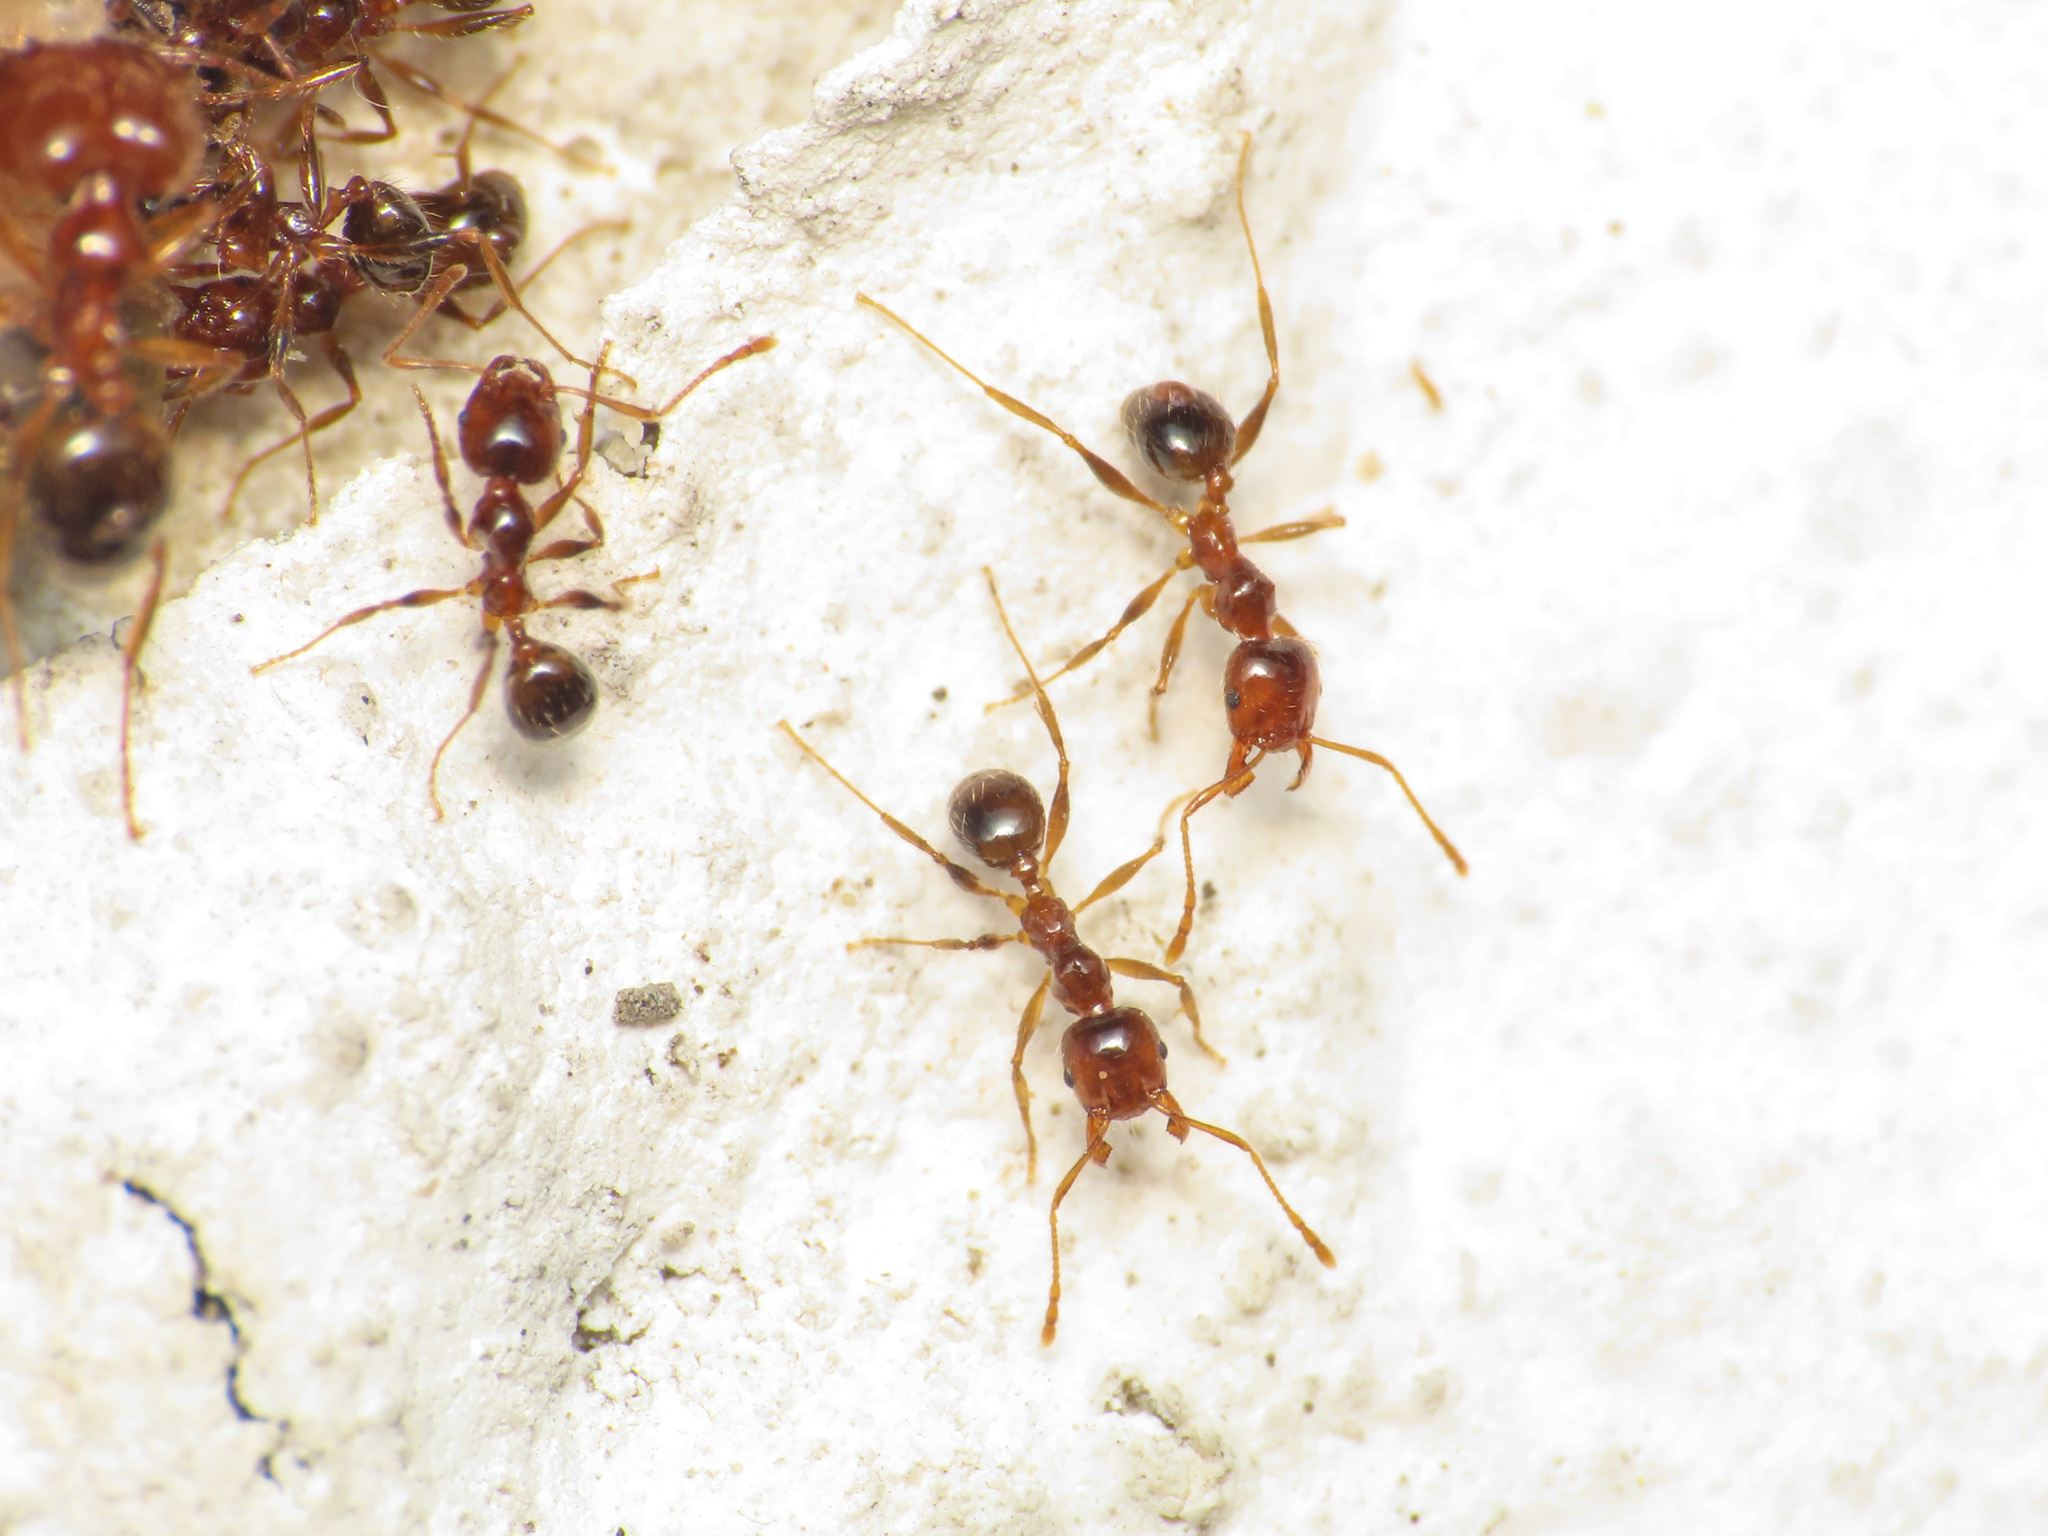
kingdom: Animalia
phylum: Arthropoda
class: Insecta
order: Hymenoptera
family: Formicidae
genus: Pheidole
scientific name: Pheidole pallidula
